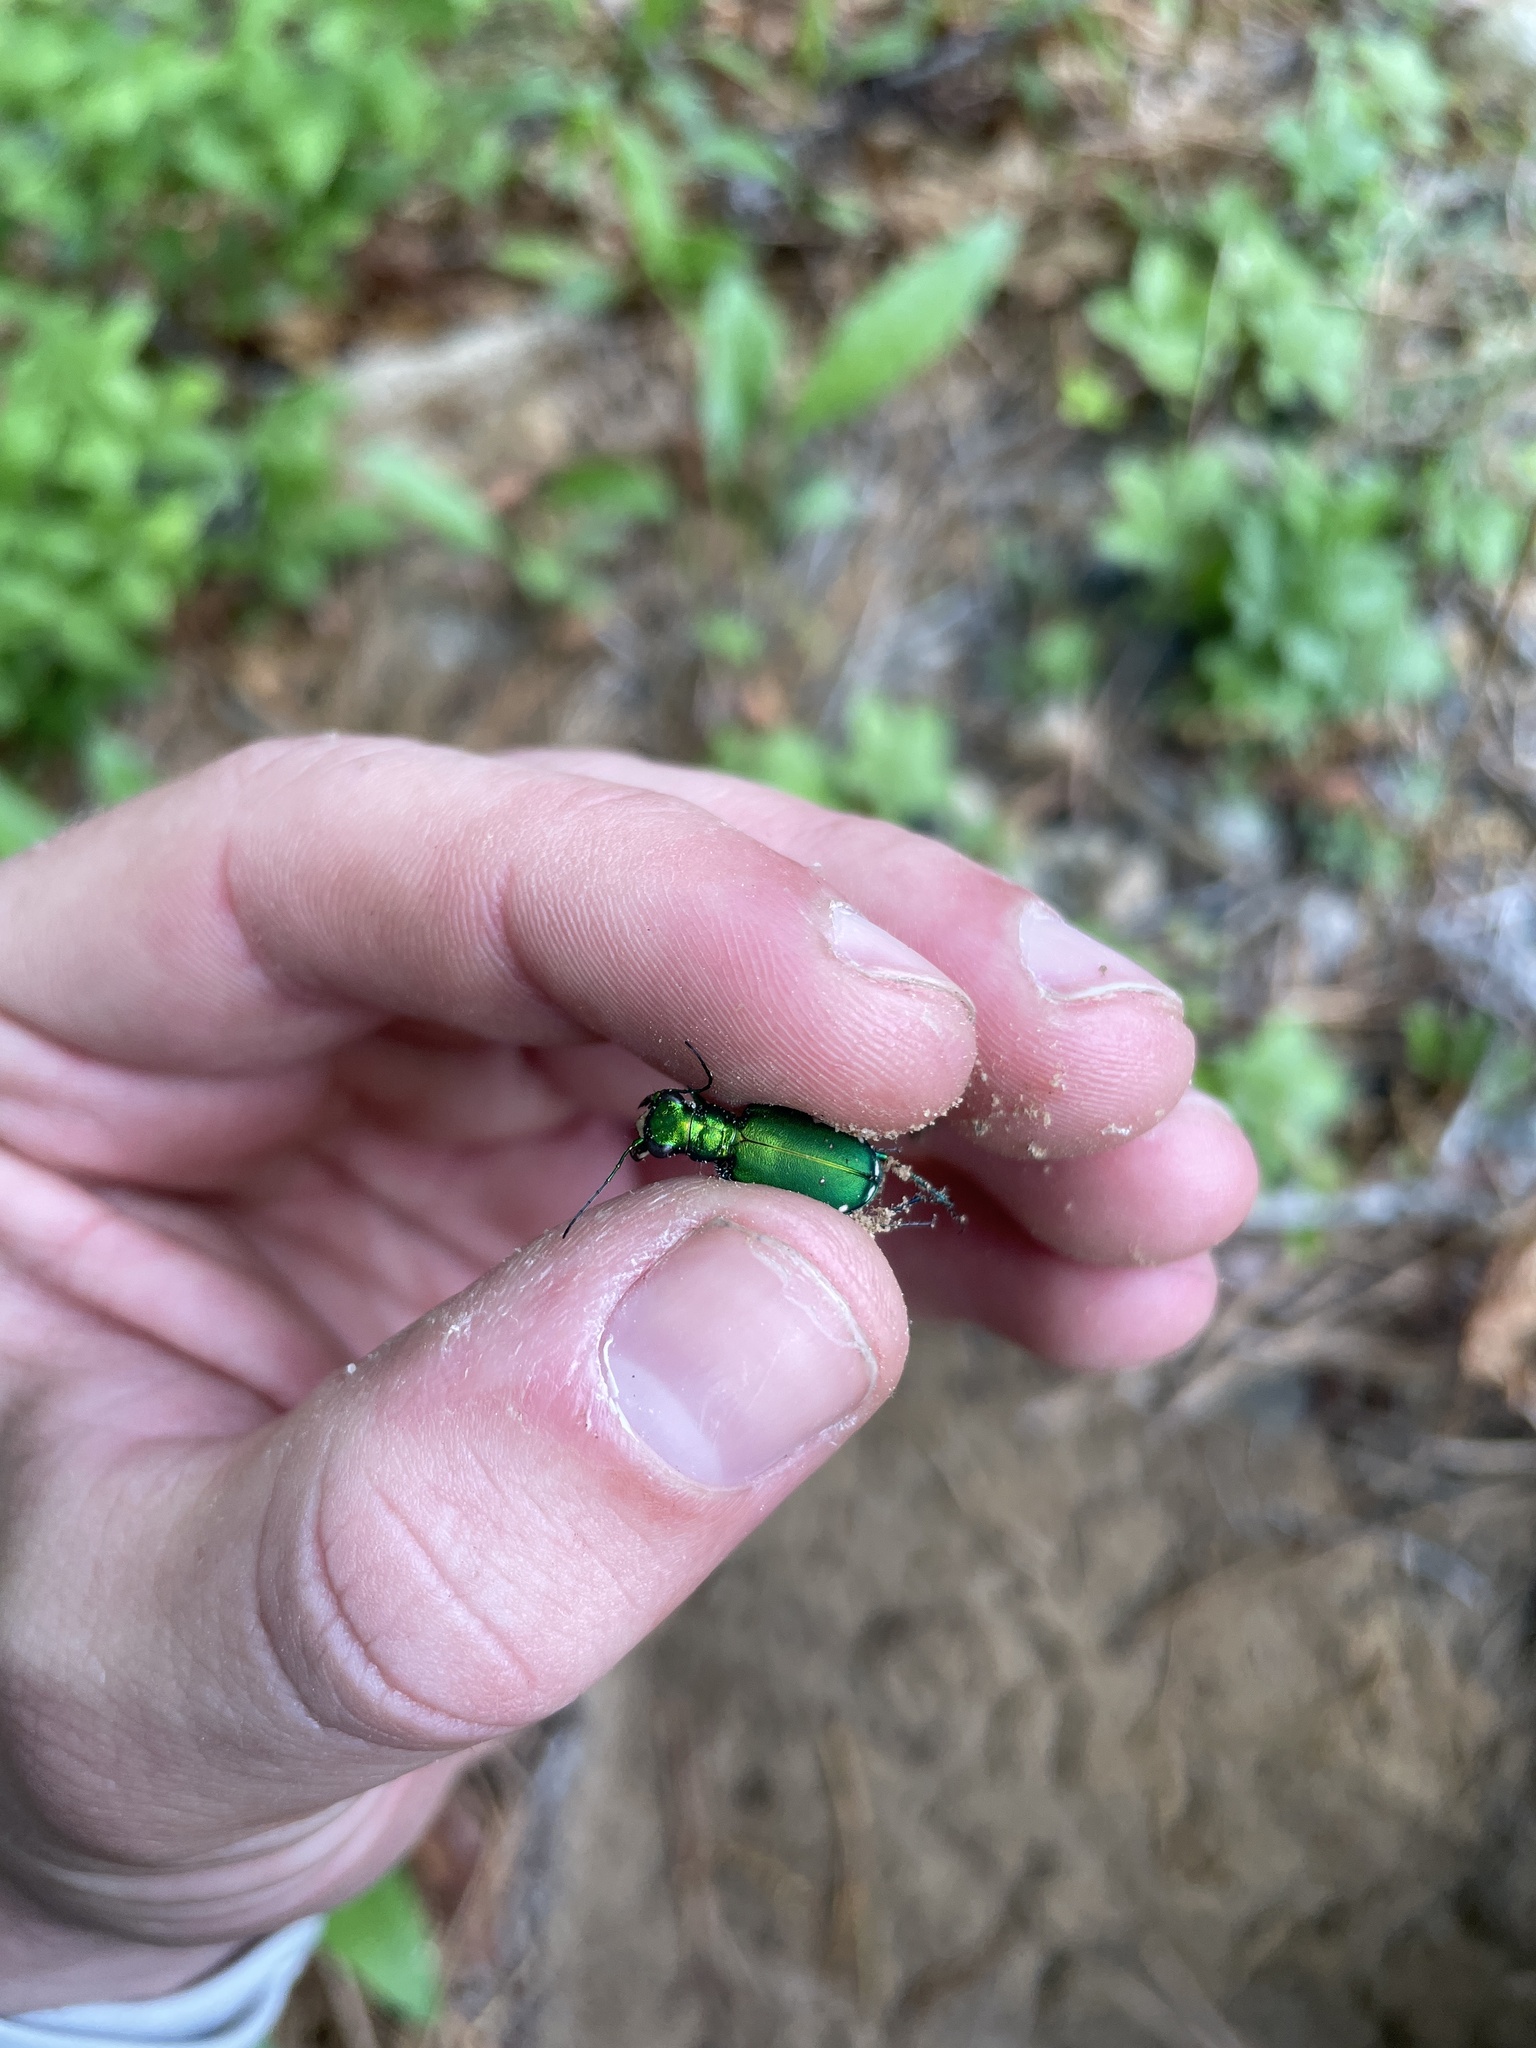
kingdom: Animalia
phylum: Arthropoda
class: Insecta
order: Coleoptera
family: Carabidae
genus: Cicindela
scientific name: Cicindela sexguttata
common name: Six-spotted tiger beetle
